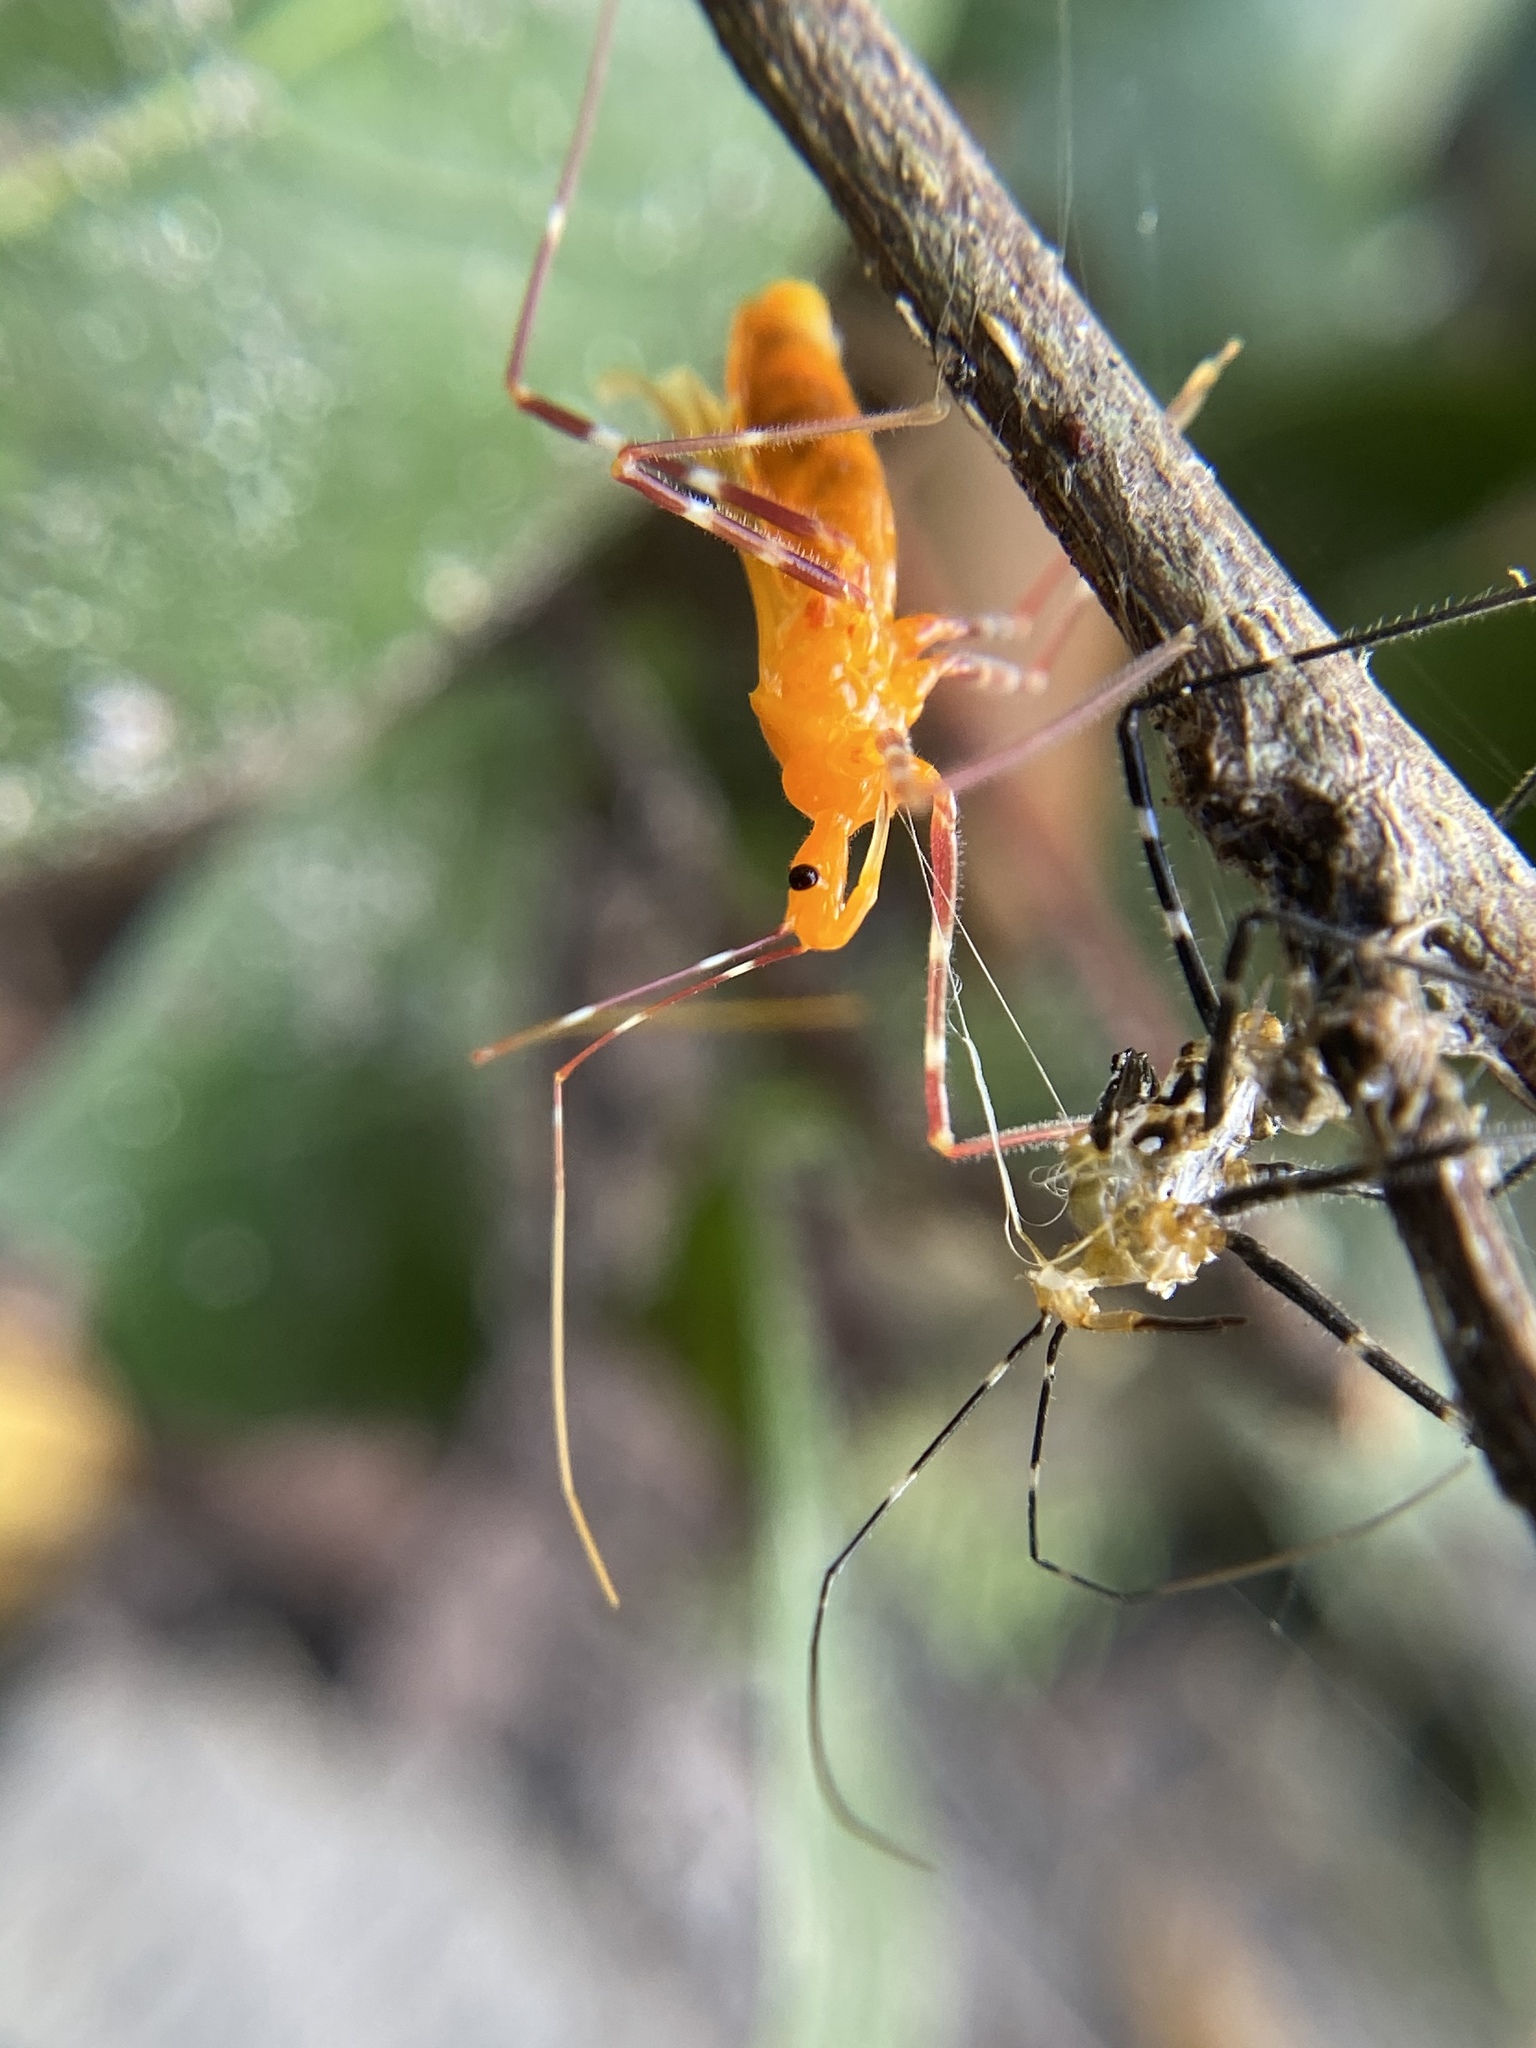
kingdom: Animalia
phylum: Arthropoda
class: Insecta
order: Hemiptera
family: Reduviidae
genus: Zelus
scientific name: Zelus longipes
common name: Milkweed assassin bug
